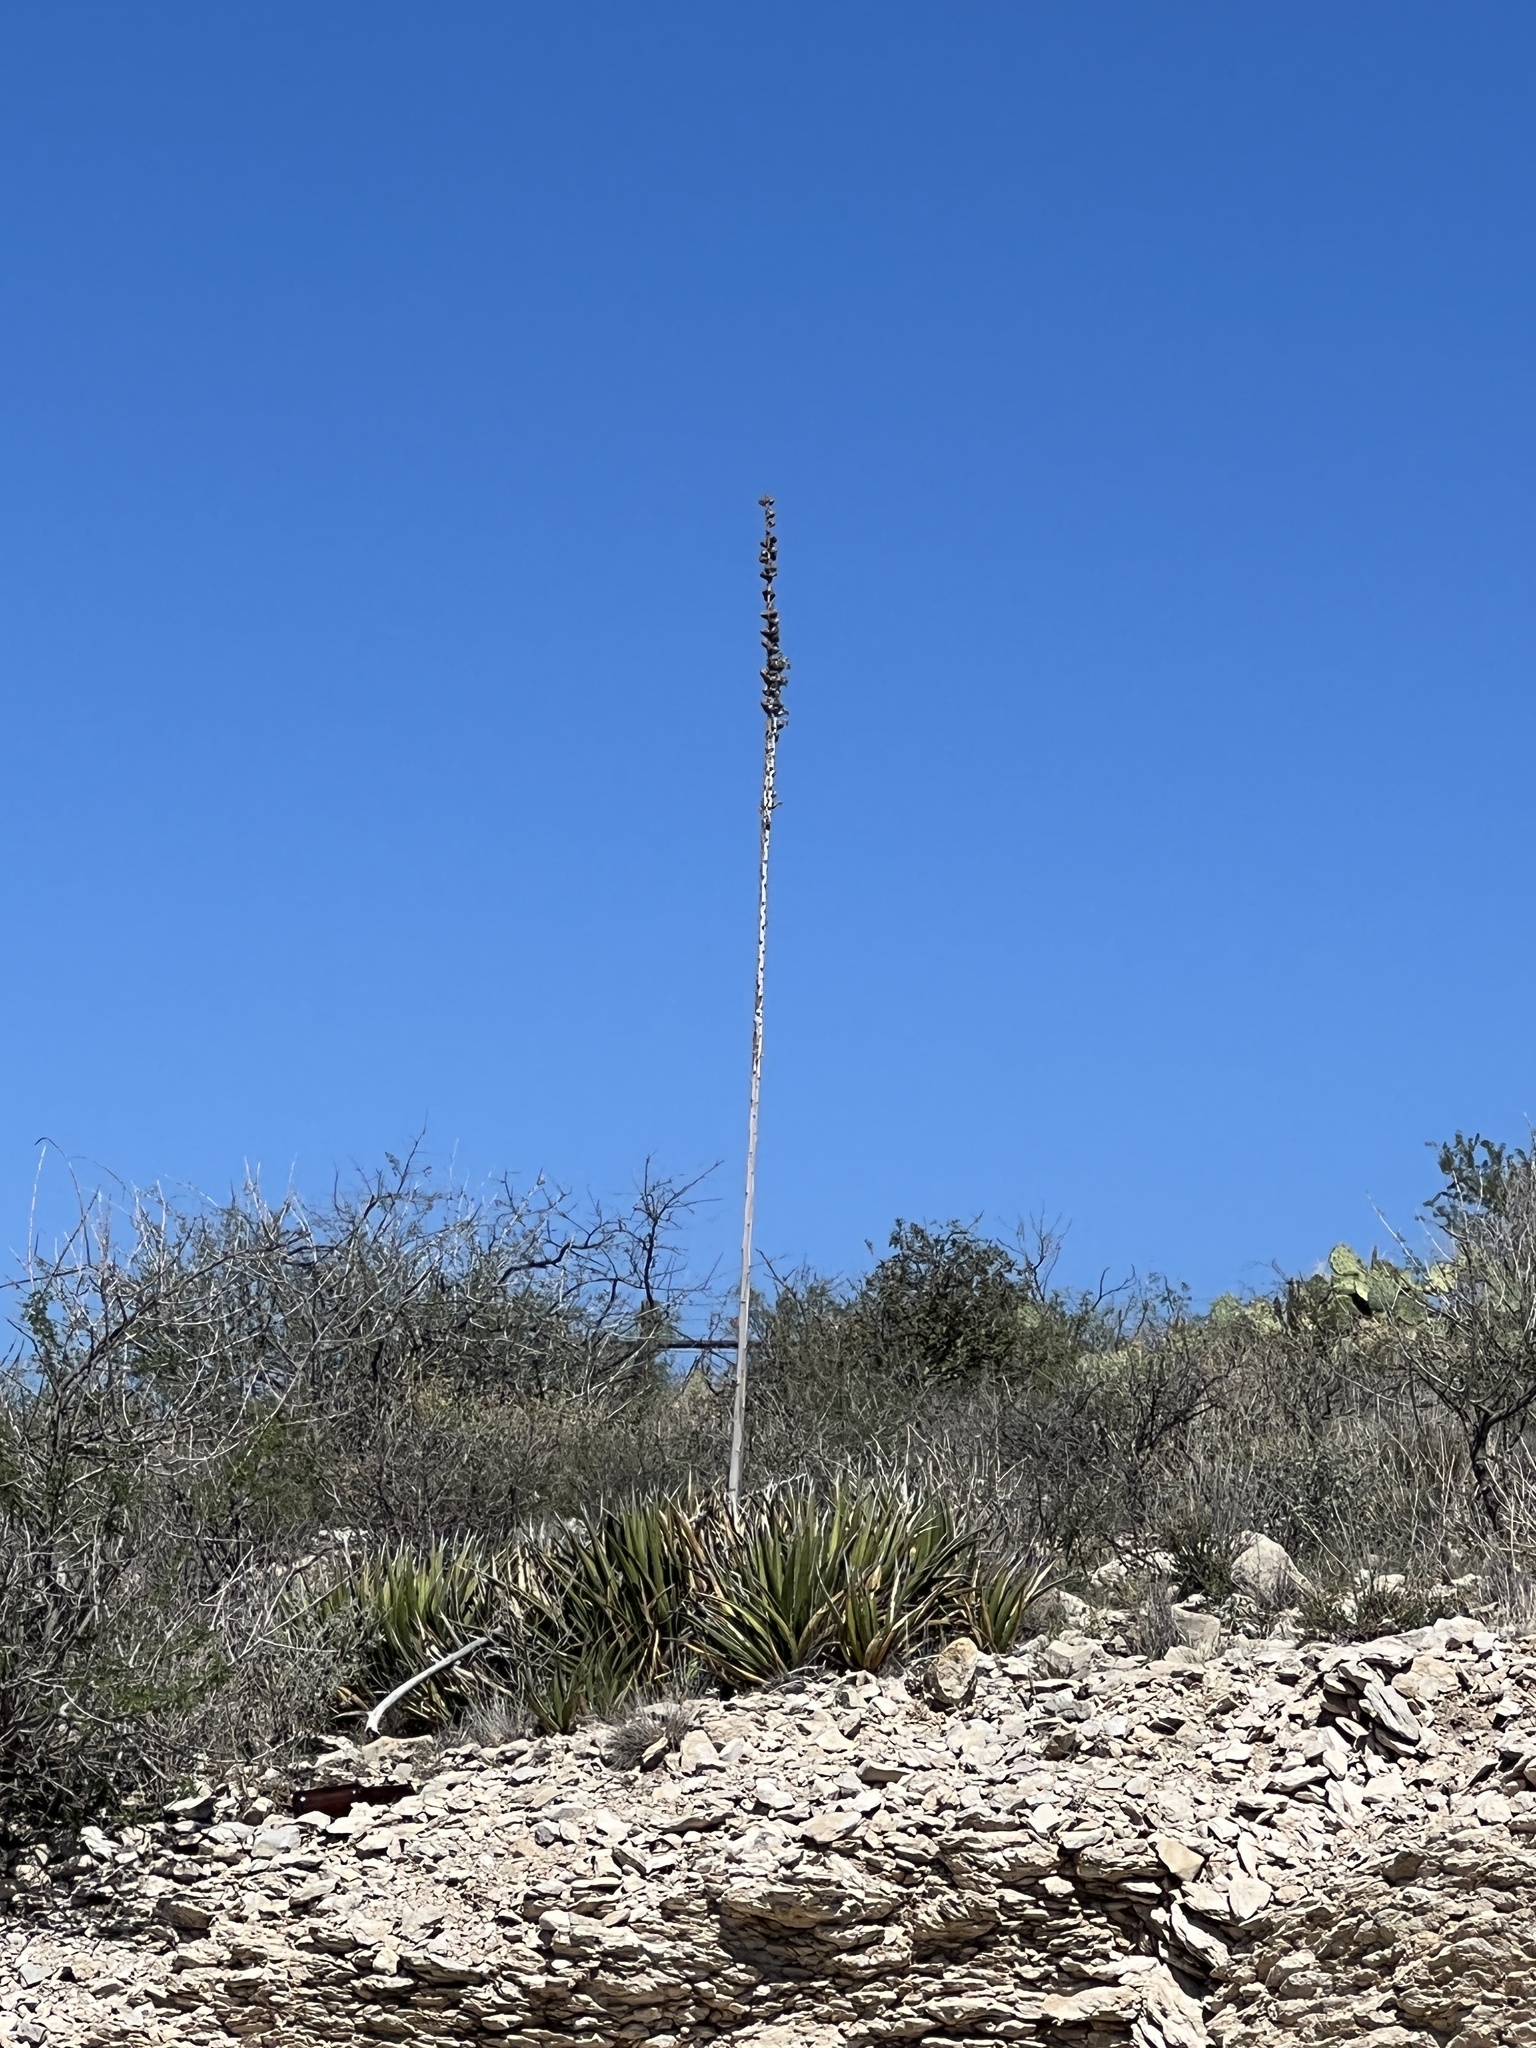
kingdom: Plantae
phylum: Tracheophyta
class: Liliopsida
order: Asparagales
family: Asparagaceae
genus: Agave
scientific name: Agave lechuguilla
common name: Lecheguilla agave
